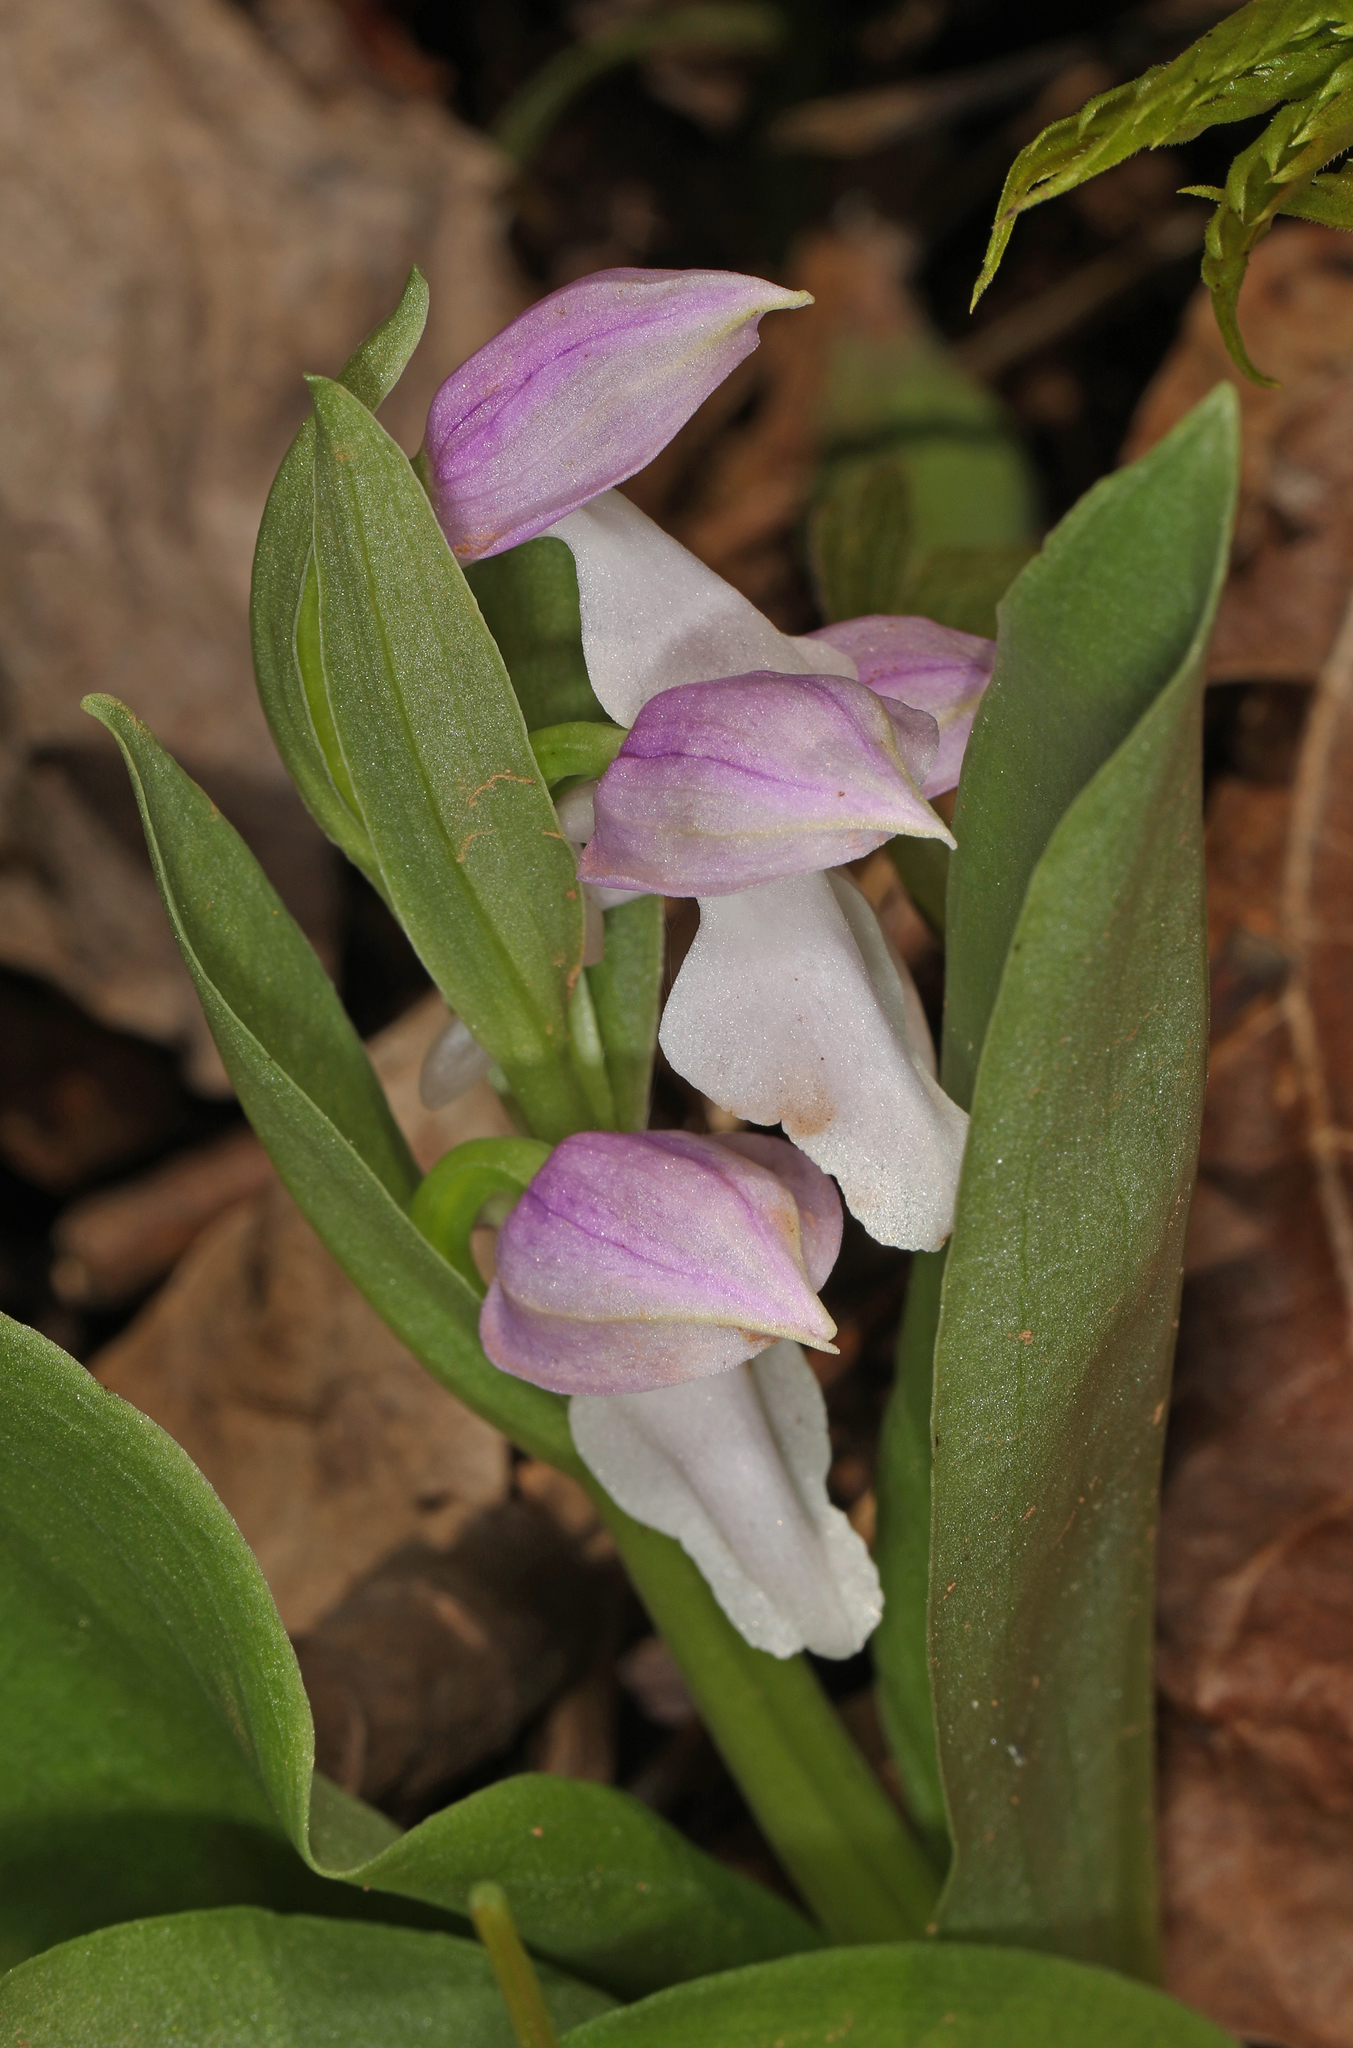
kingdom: Plantae
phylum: Tracheophyta
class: Liliopsida
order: Asparagales
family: Orchidaceae
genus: Galearis
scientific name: Galearis spectabilis
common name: Purple-hooded orchis
